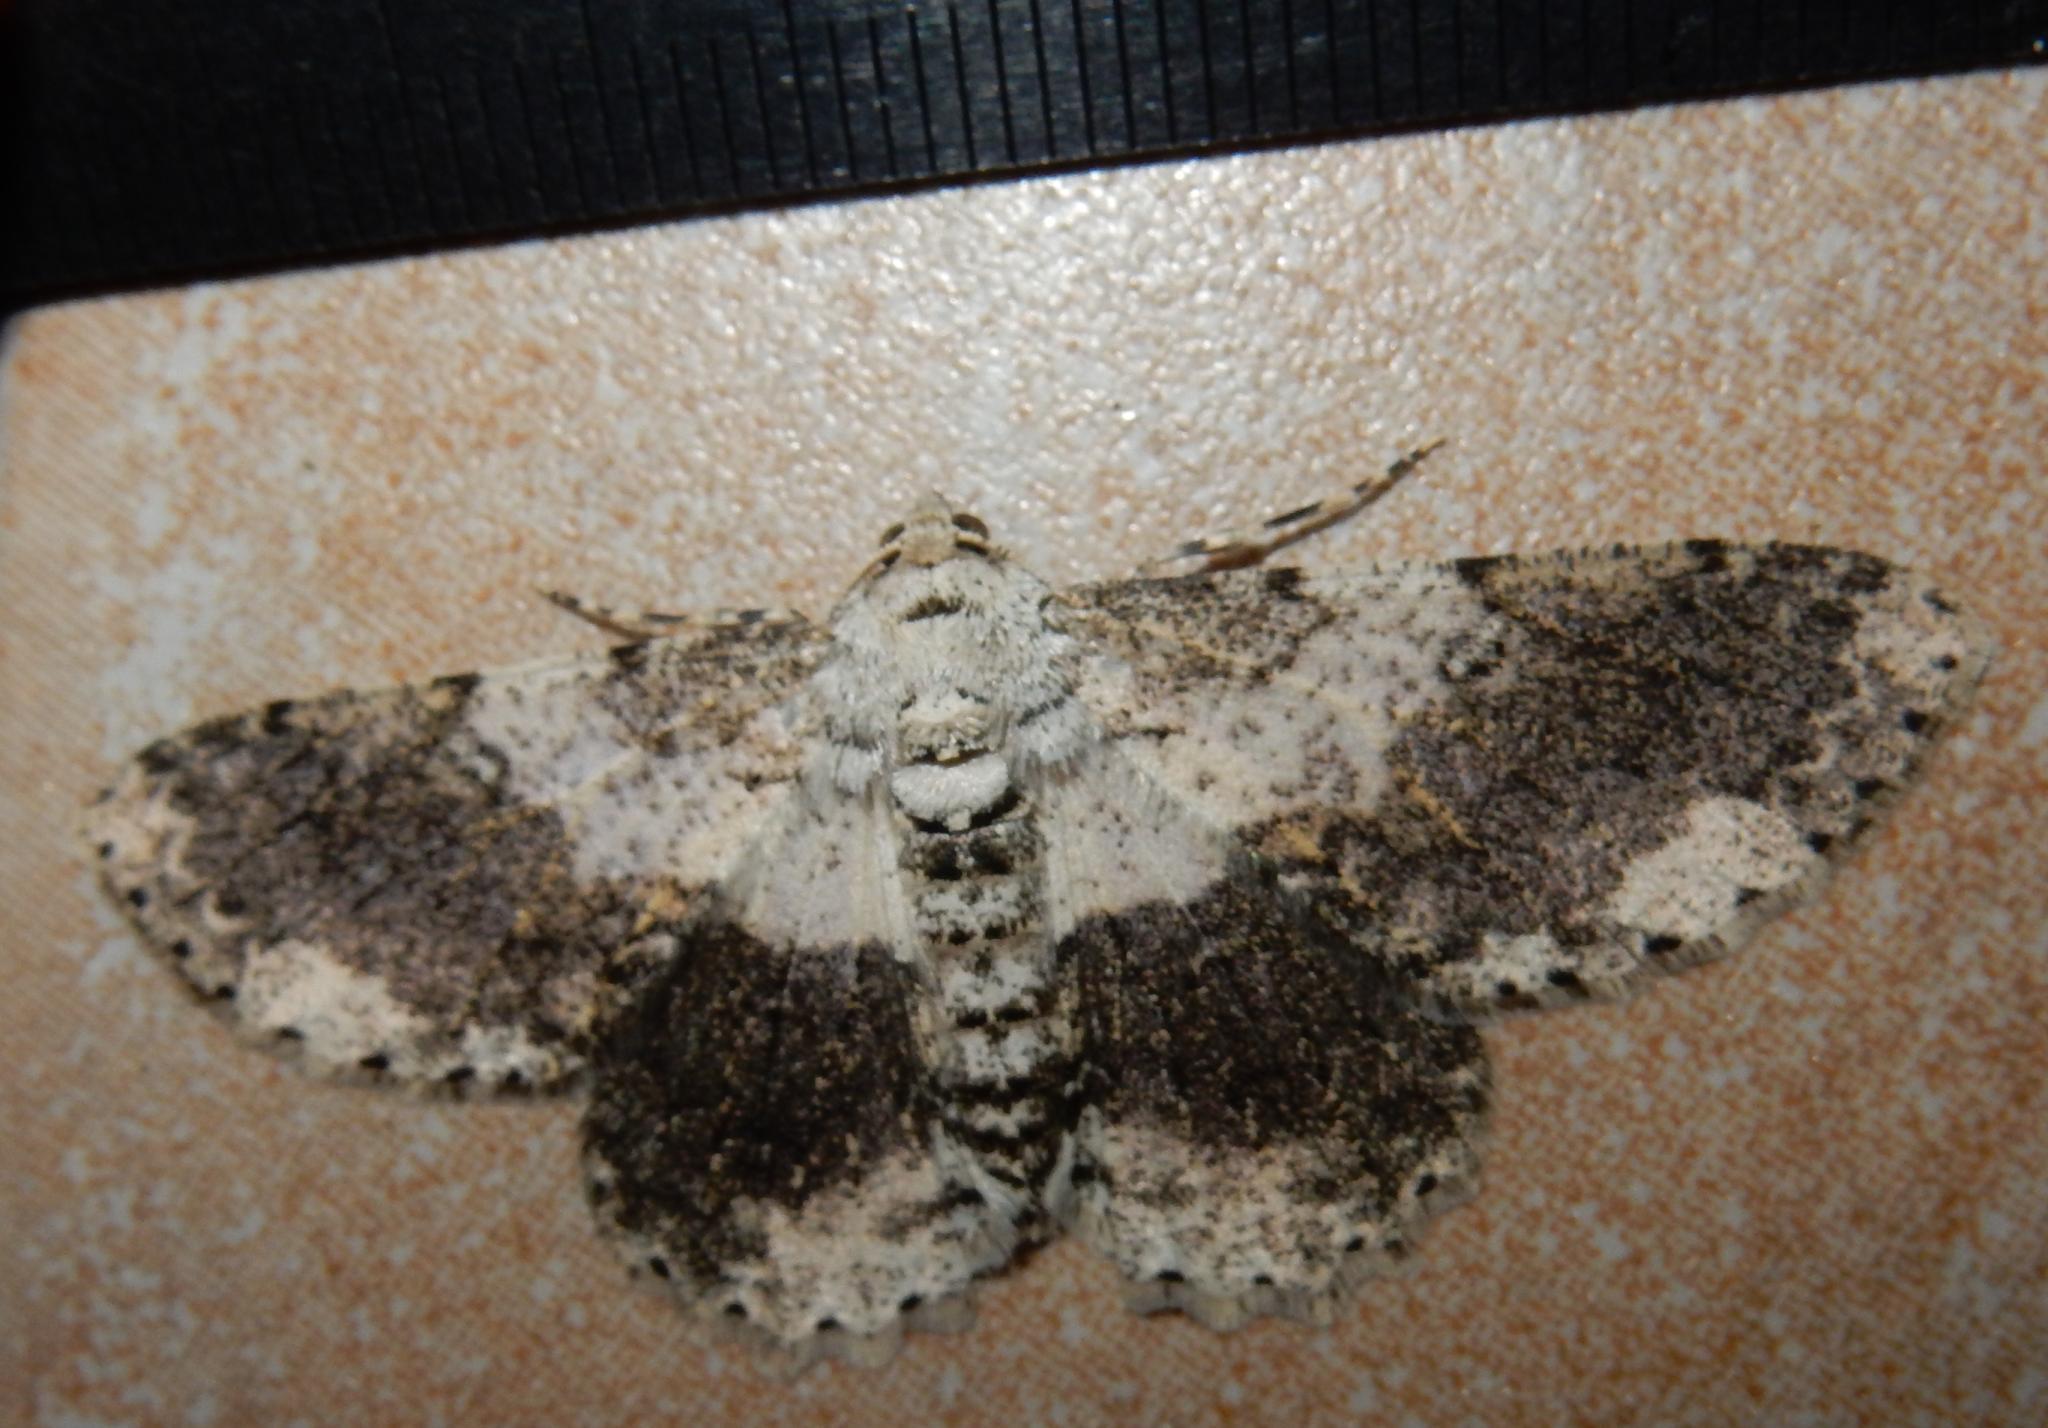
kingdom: Animalia
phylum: Arthropoda
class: Insecta
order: Lepidoptera
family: Geometridae
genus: Ascotis
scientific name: Ascotis selenaria
